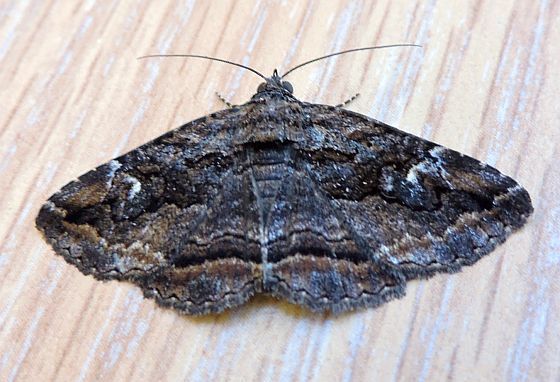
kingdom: Animalia
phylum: Arthropoda
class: Insecta
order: Lepidoptera
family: Erebidae
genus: Zaleops
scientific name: Zaleops umbrina
